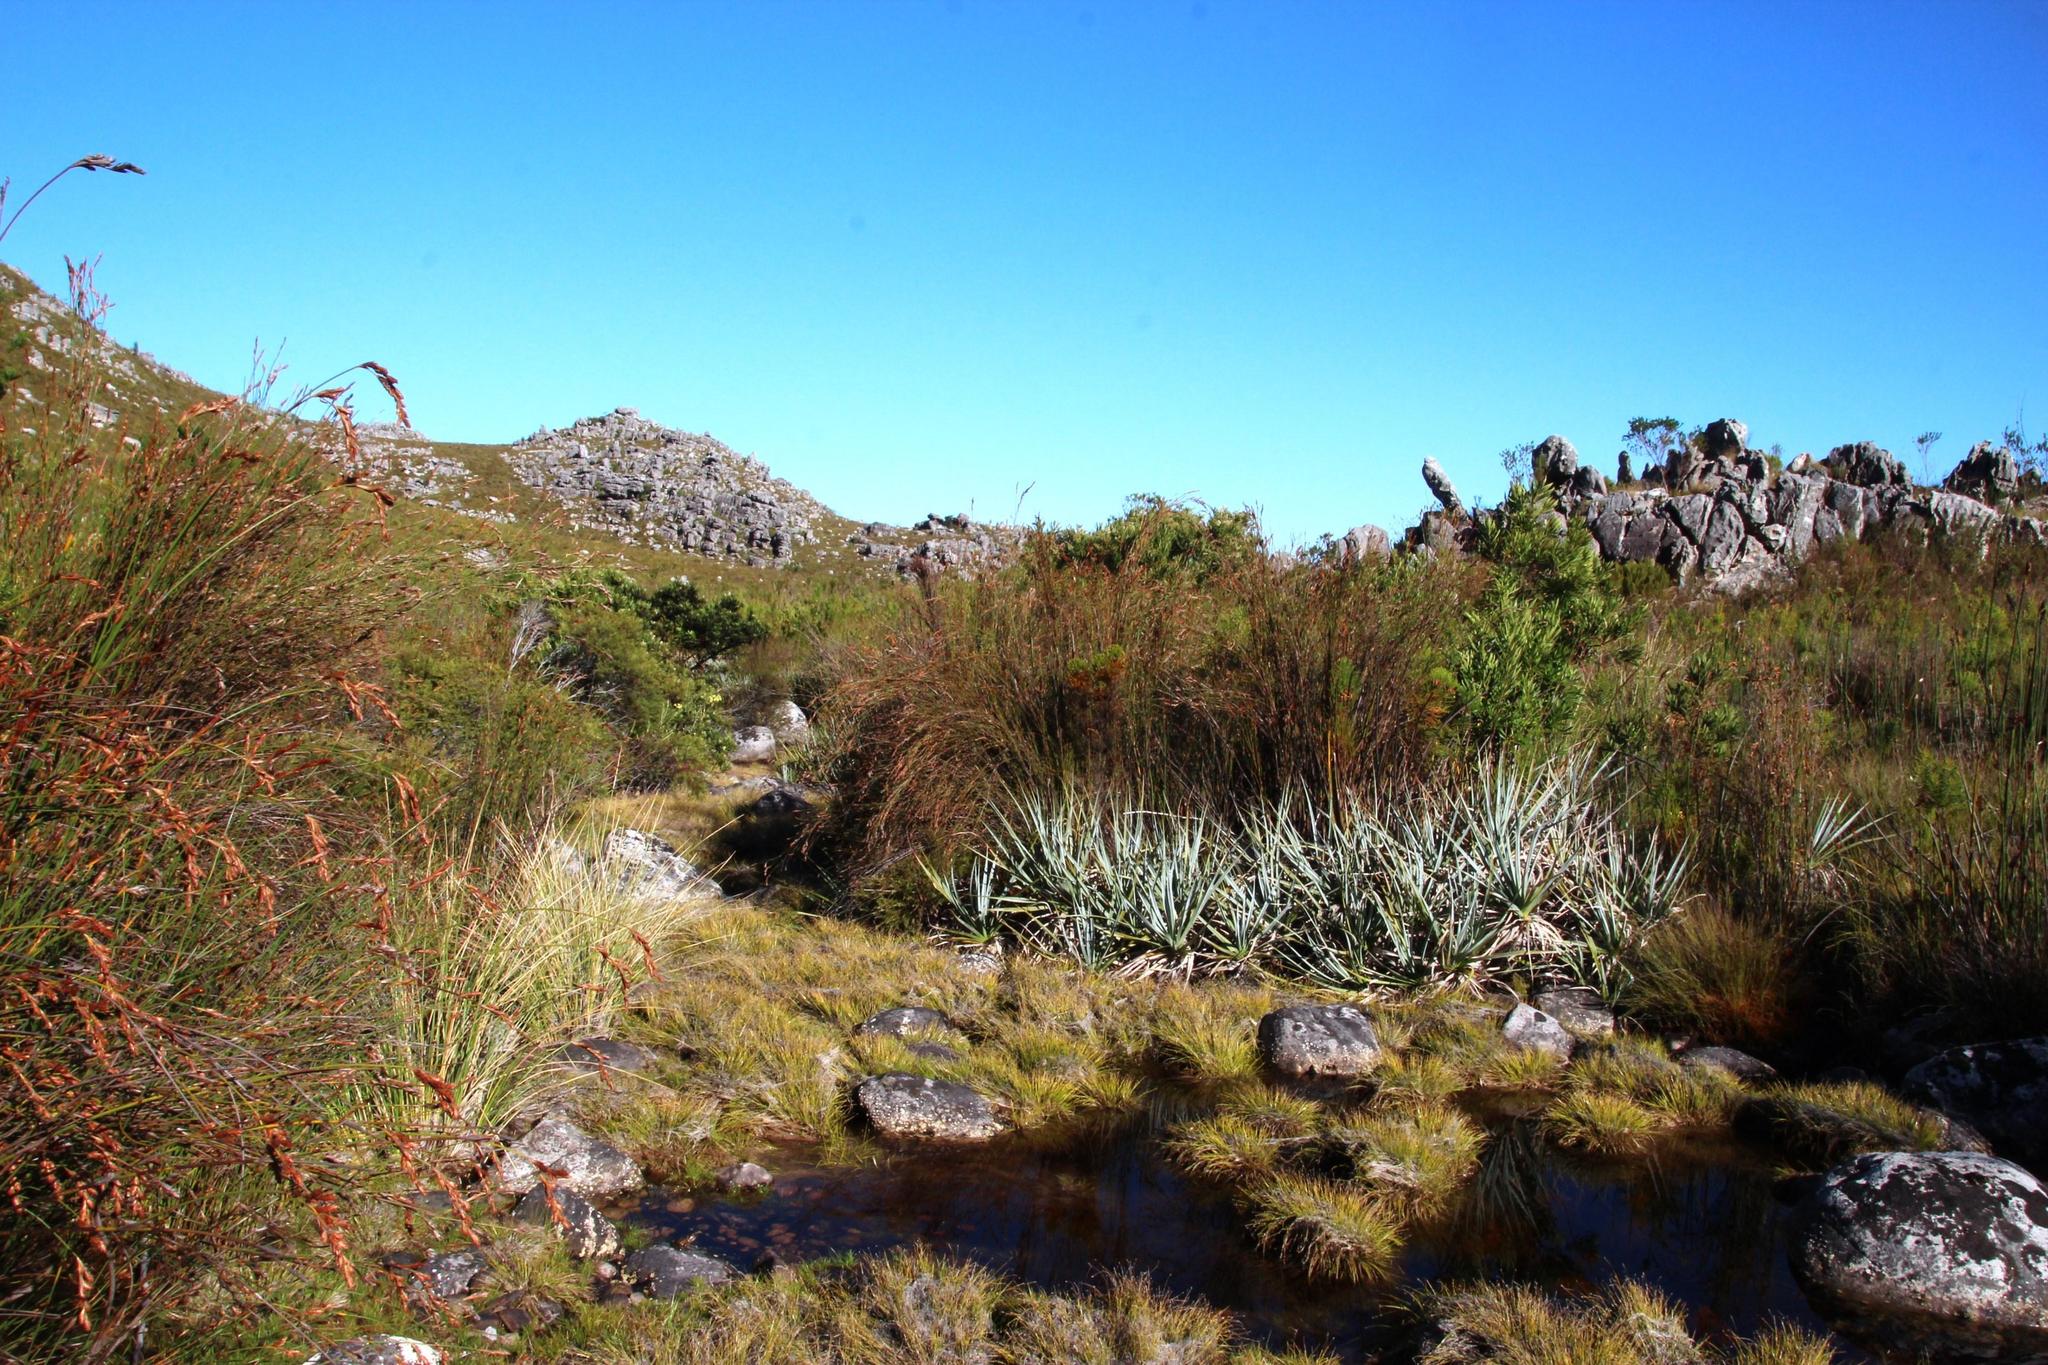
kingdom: Plantae
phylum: Tracheophyta
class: Liliopsida
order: Poales
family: Thurniaceae
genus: Prionium
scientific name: Prionium serratum
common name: Palmiet
